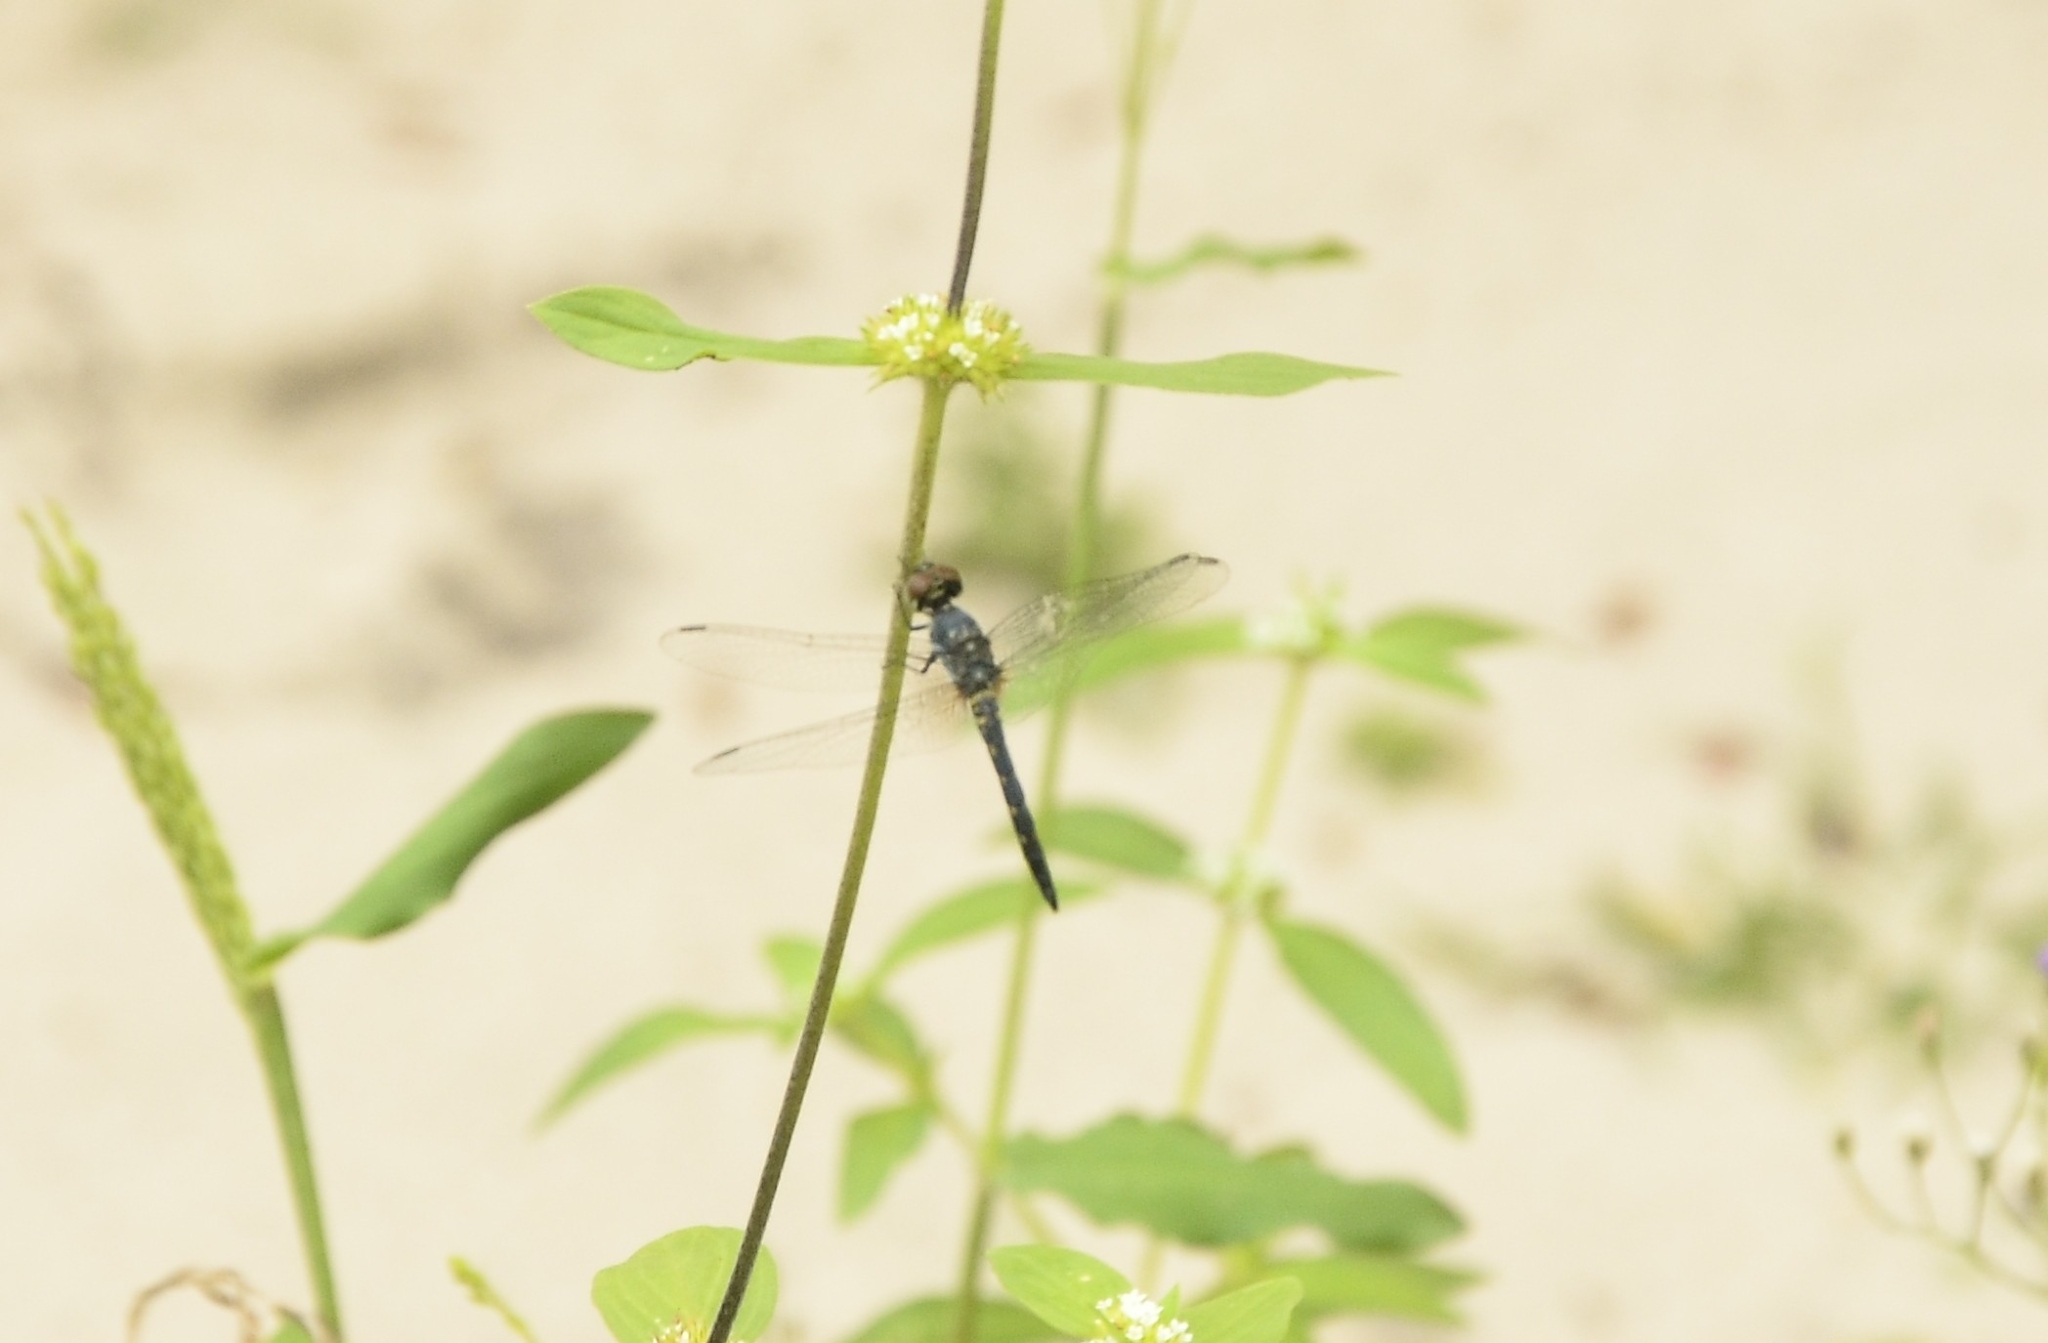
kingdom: Animalia
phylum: Arthropoda
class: Insecta
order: Odonata
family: Libellulidae
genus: Brachydiplax
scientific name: Brachydiplax sobrina
